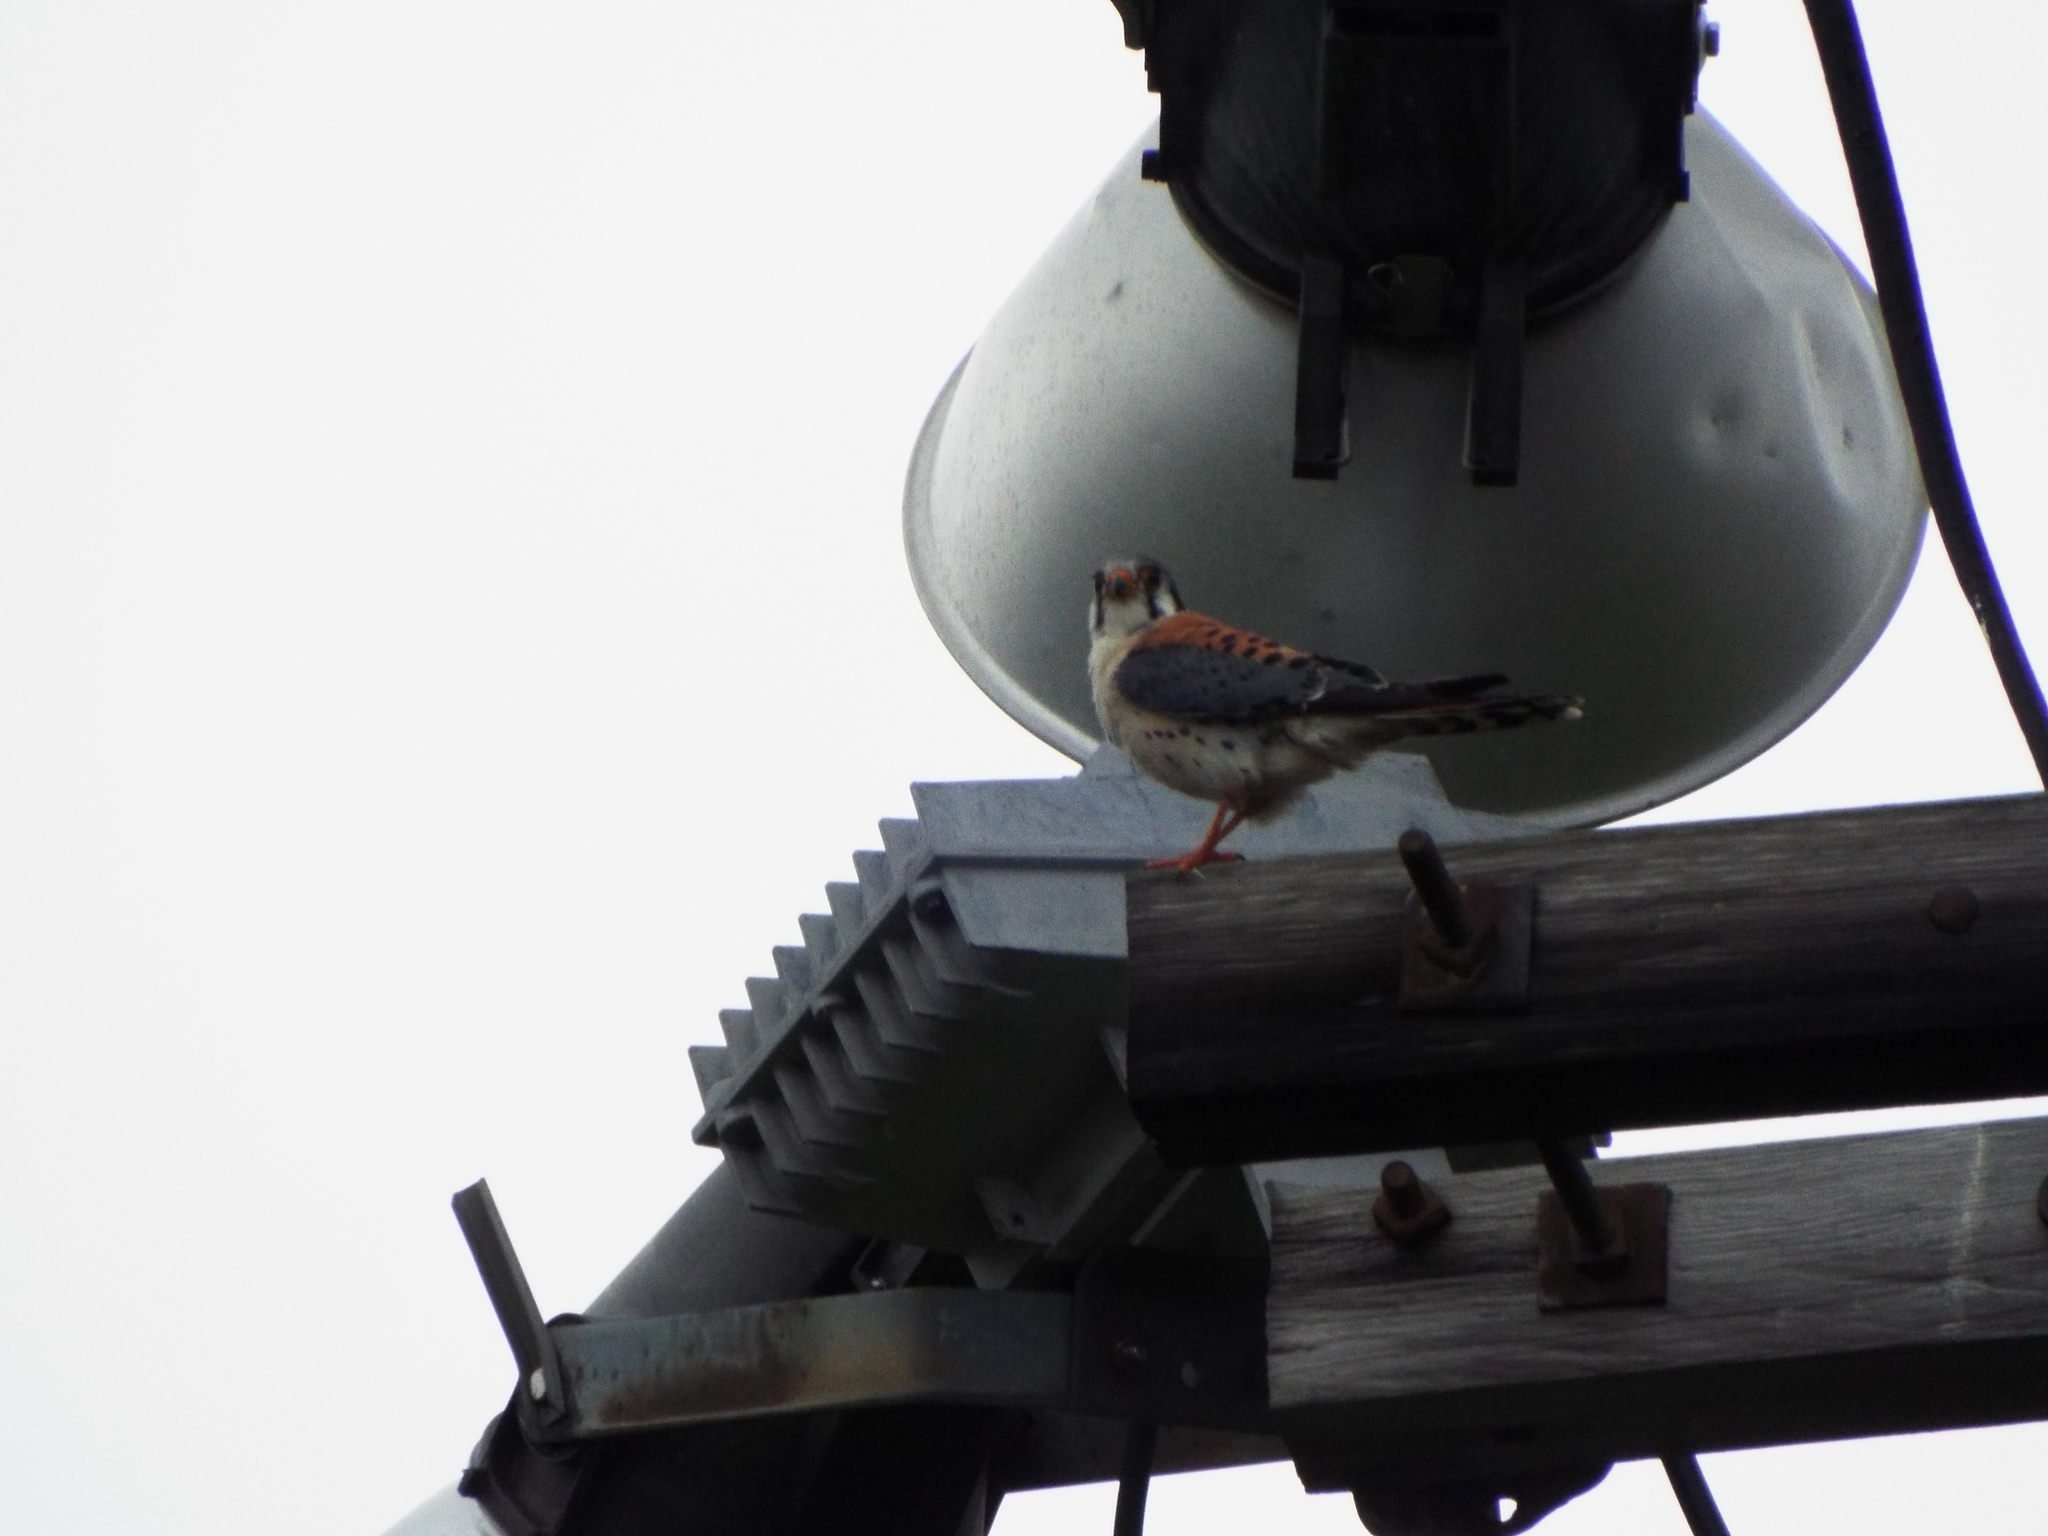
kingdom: Animalia
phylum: Chordata
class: Aves
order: Falconiformes
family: Falconidae
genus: Falco
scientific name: Falco sparverius
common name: American kestrel
